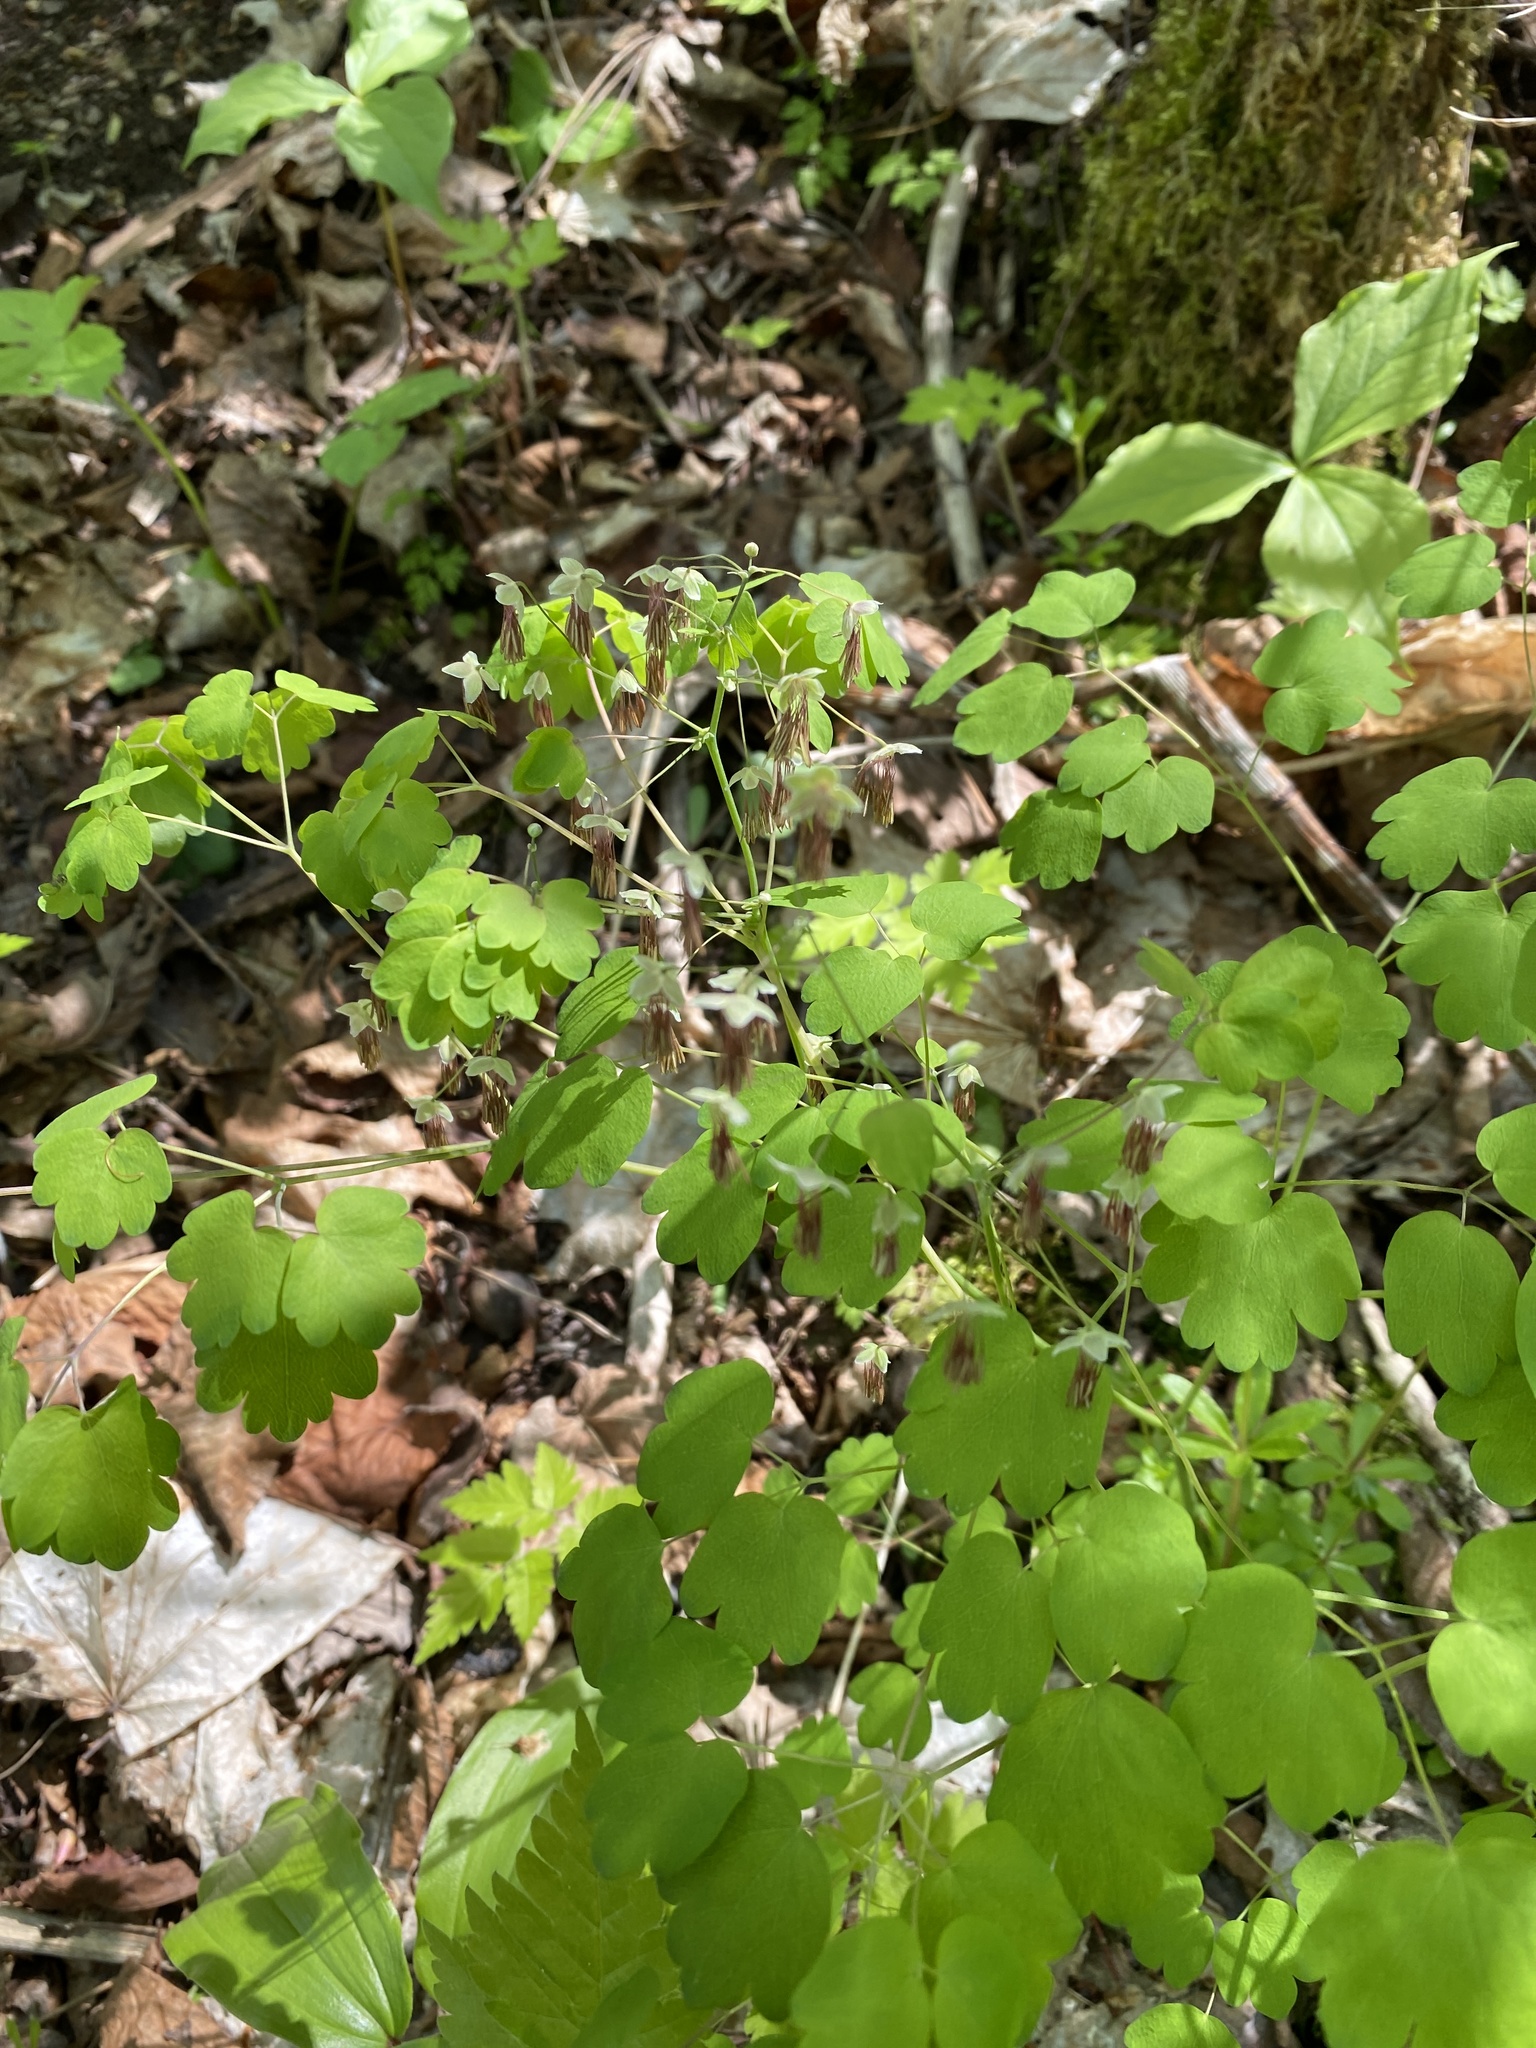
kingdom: Plantae
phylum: Tracheophyta
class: Magnoliopsida
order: Ranunculales
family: Ranunculaceae
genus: Thalictrum
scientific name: Thalictrum dioicum
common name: Early meadow-rue
